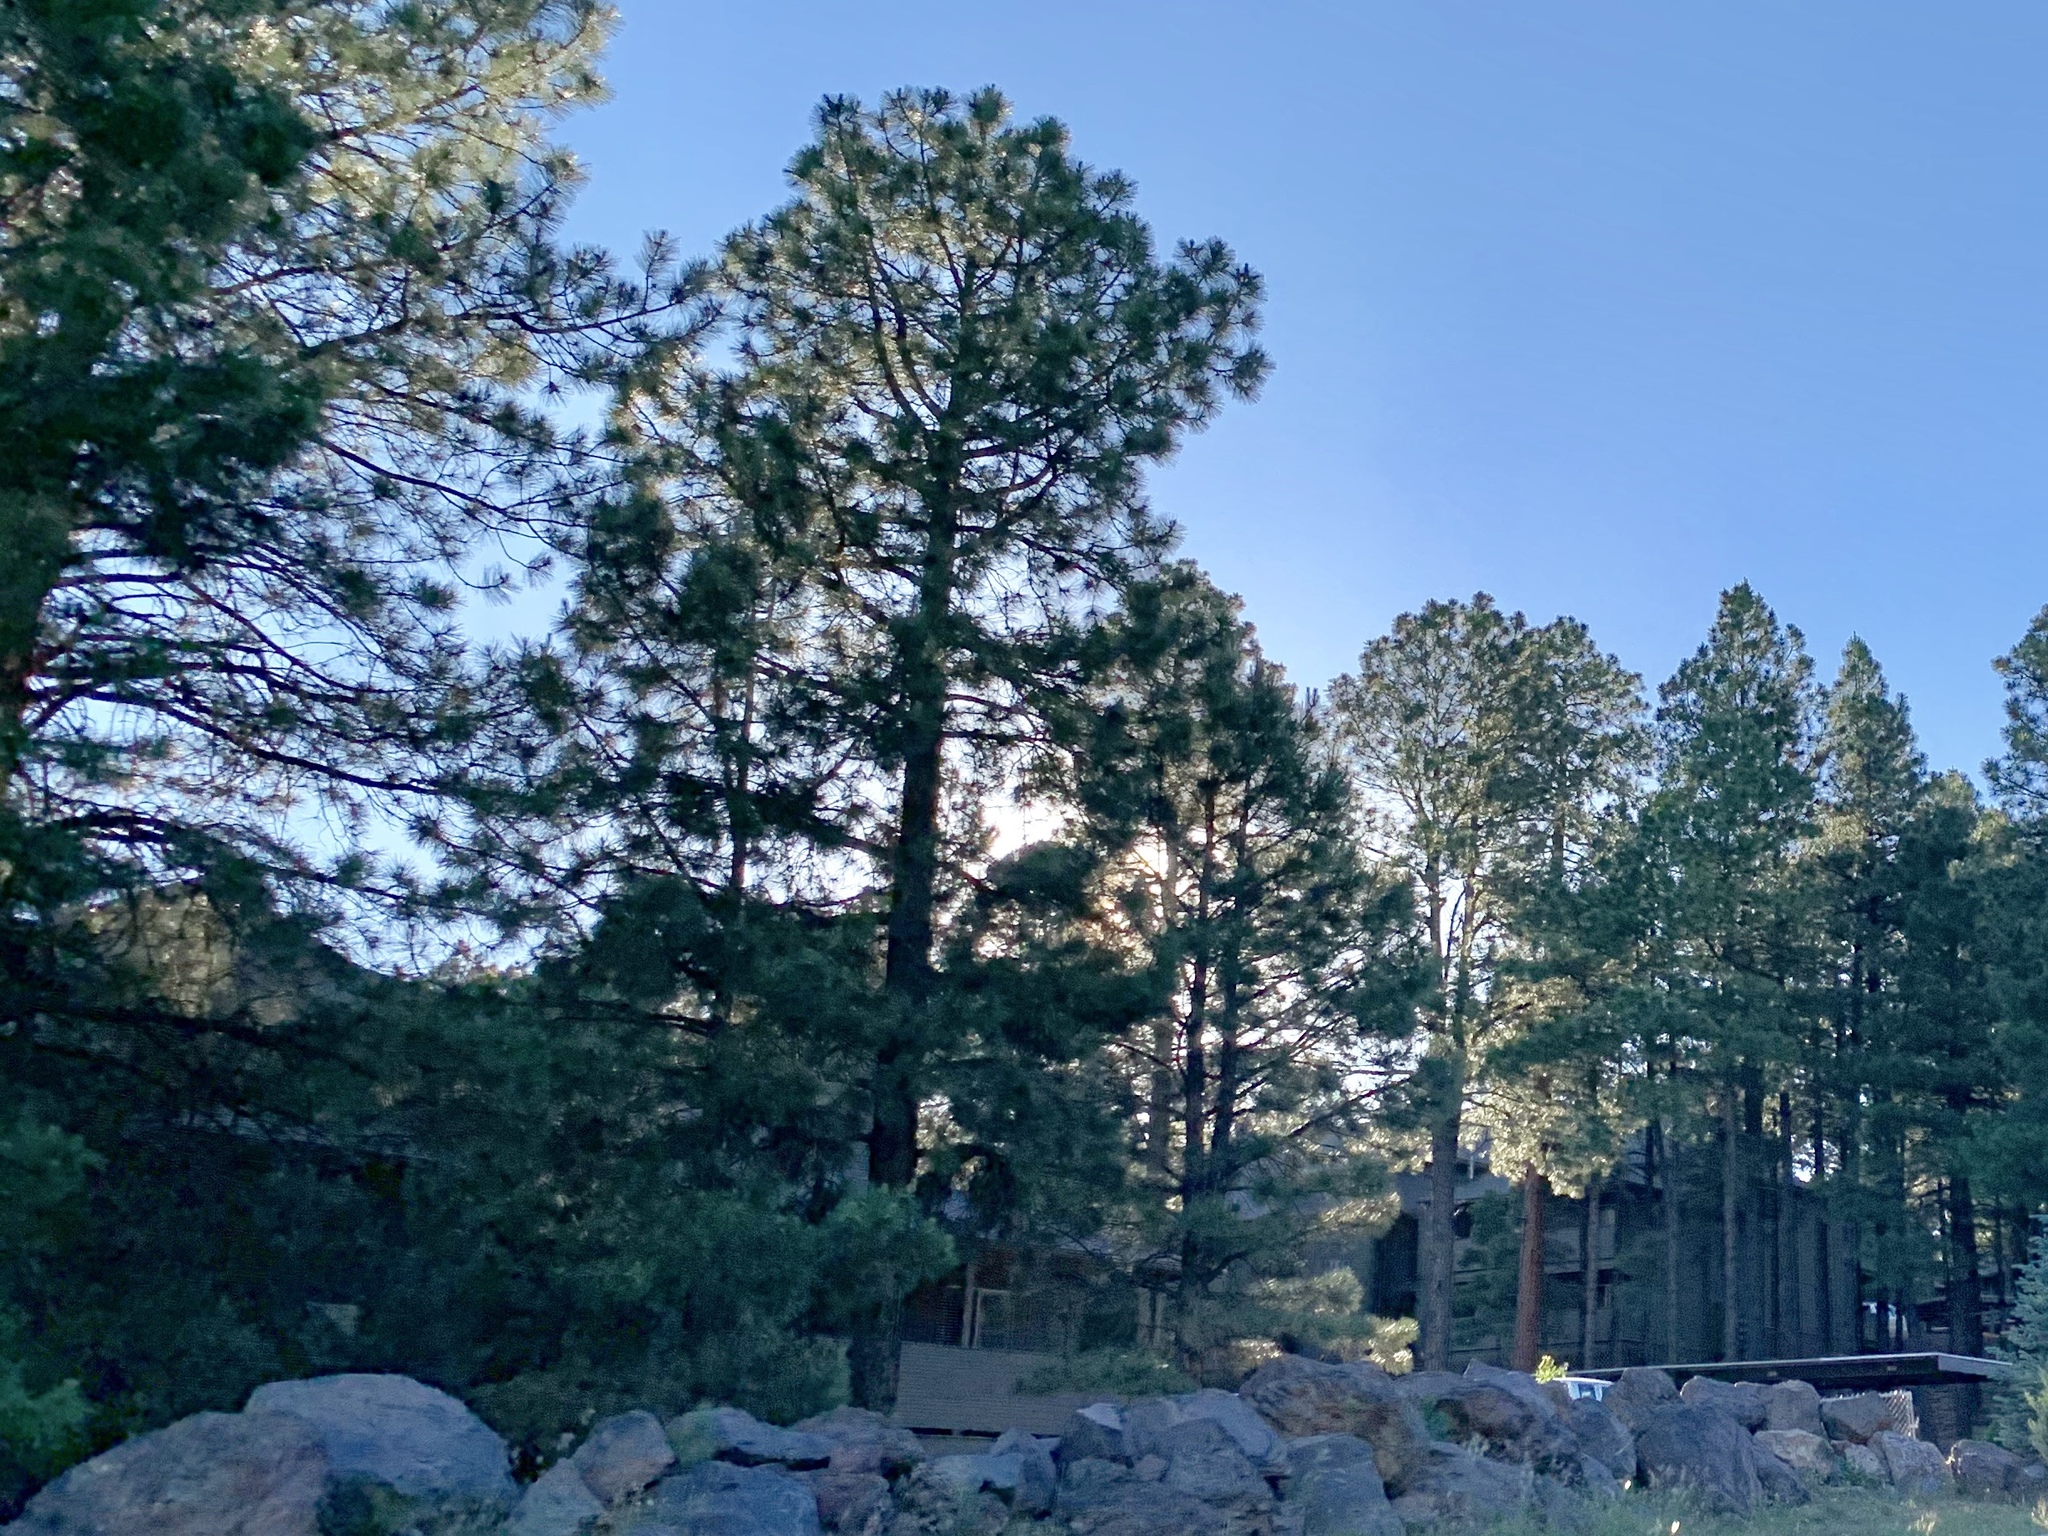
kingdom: Plantae
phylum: Tracheophyta
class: Pinopsida
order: Pinales
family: Pinaceae
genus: Pinus
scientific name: Pinus ponderosa
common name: Western yellow-pine
